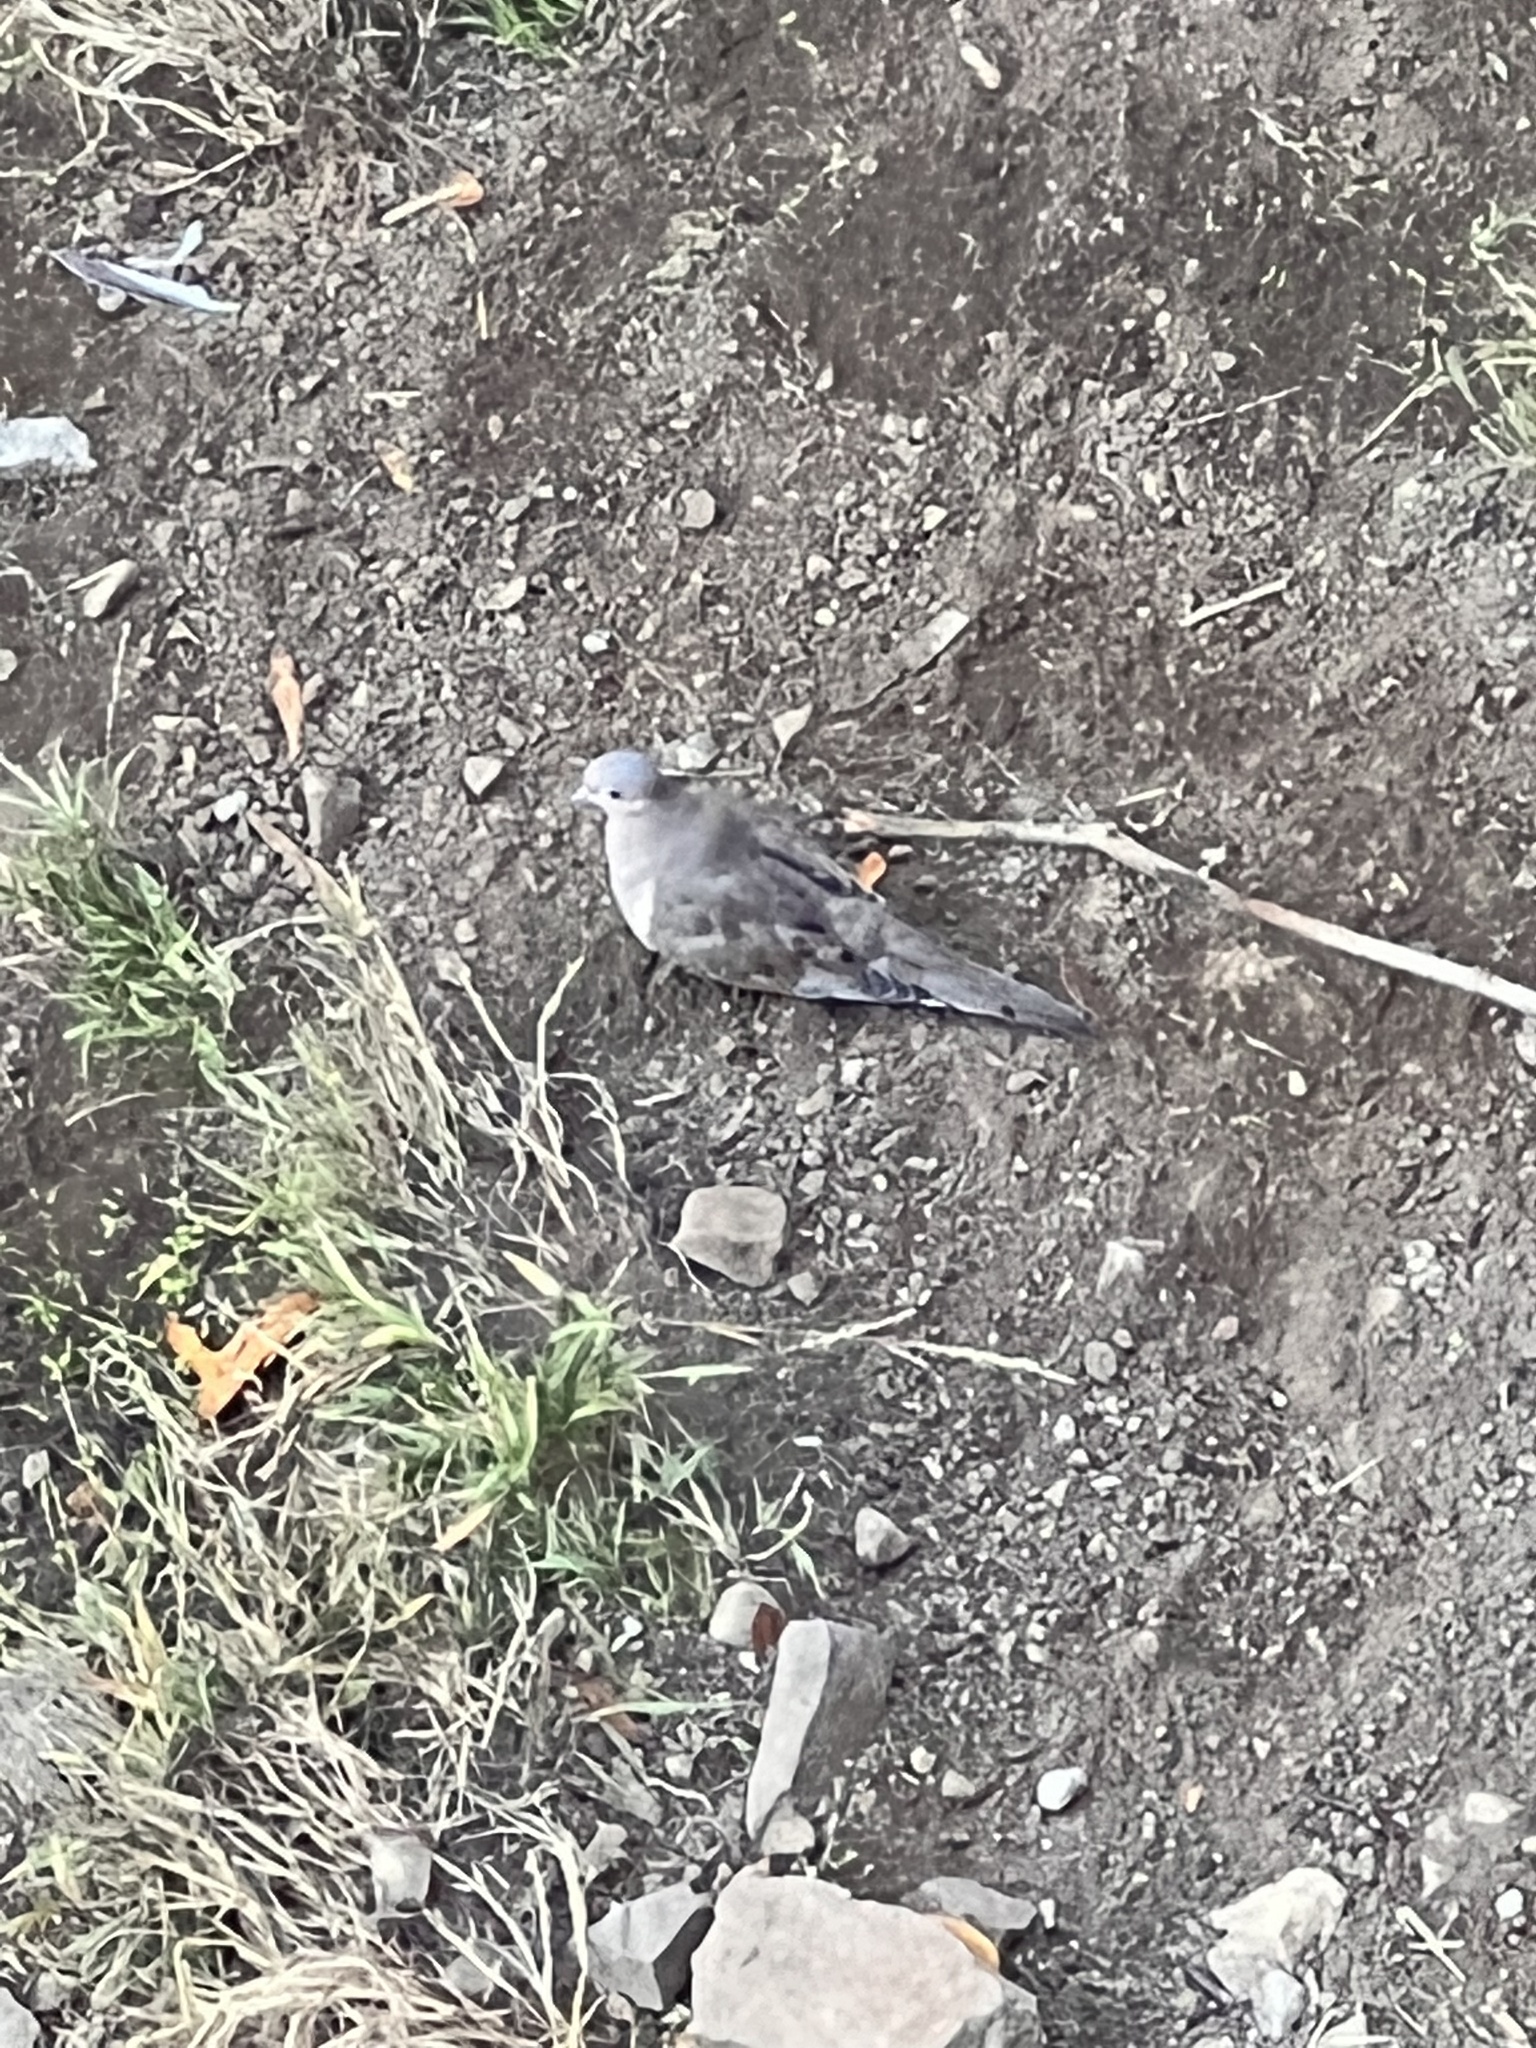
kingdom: Animalia
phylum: Chordata
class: Aves
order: Columbiformes
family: Columbidae
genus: Zenaida
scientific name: Zenaida macroura
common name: Mourning dove
